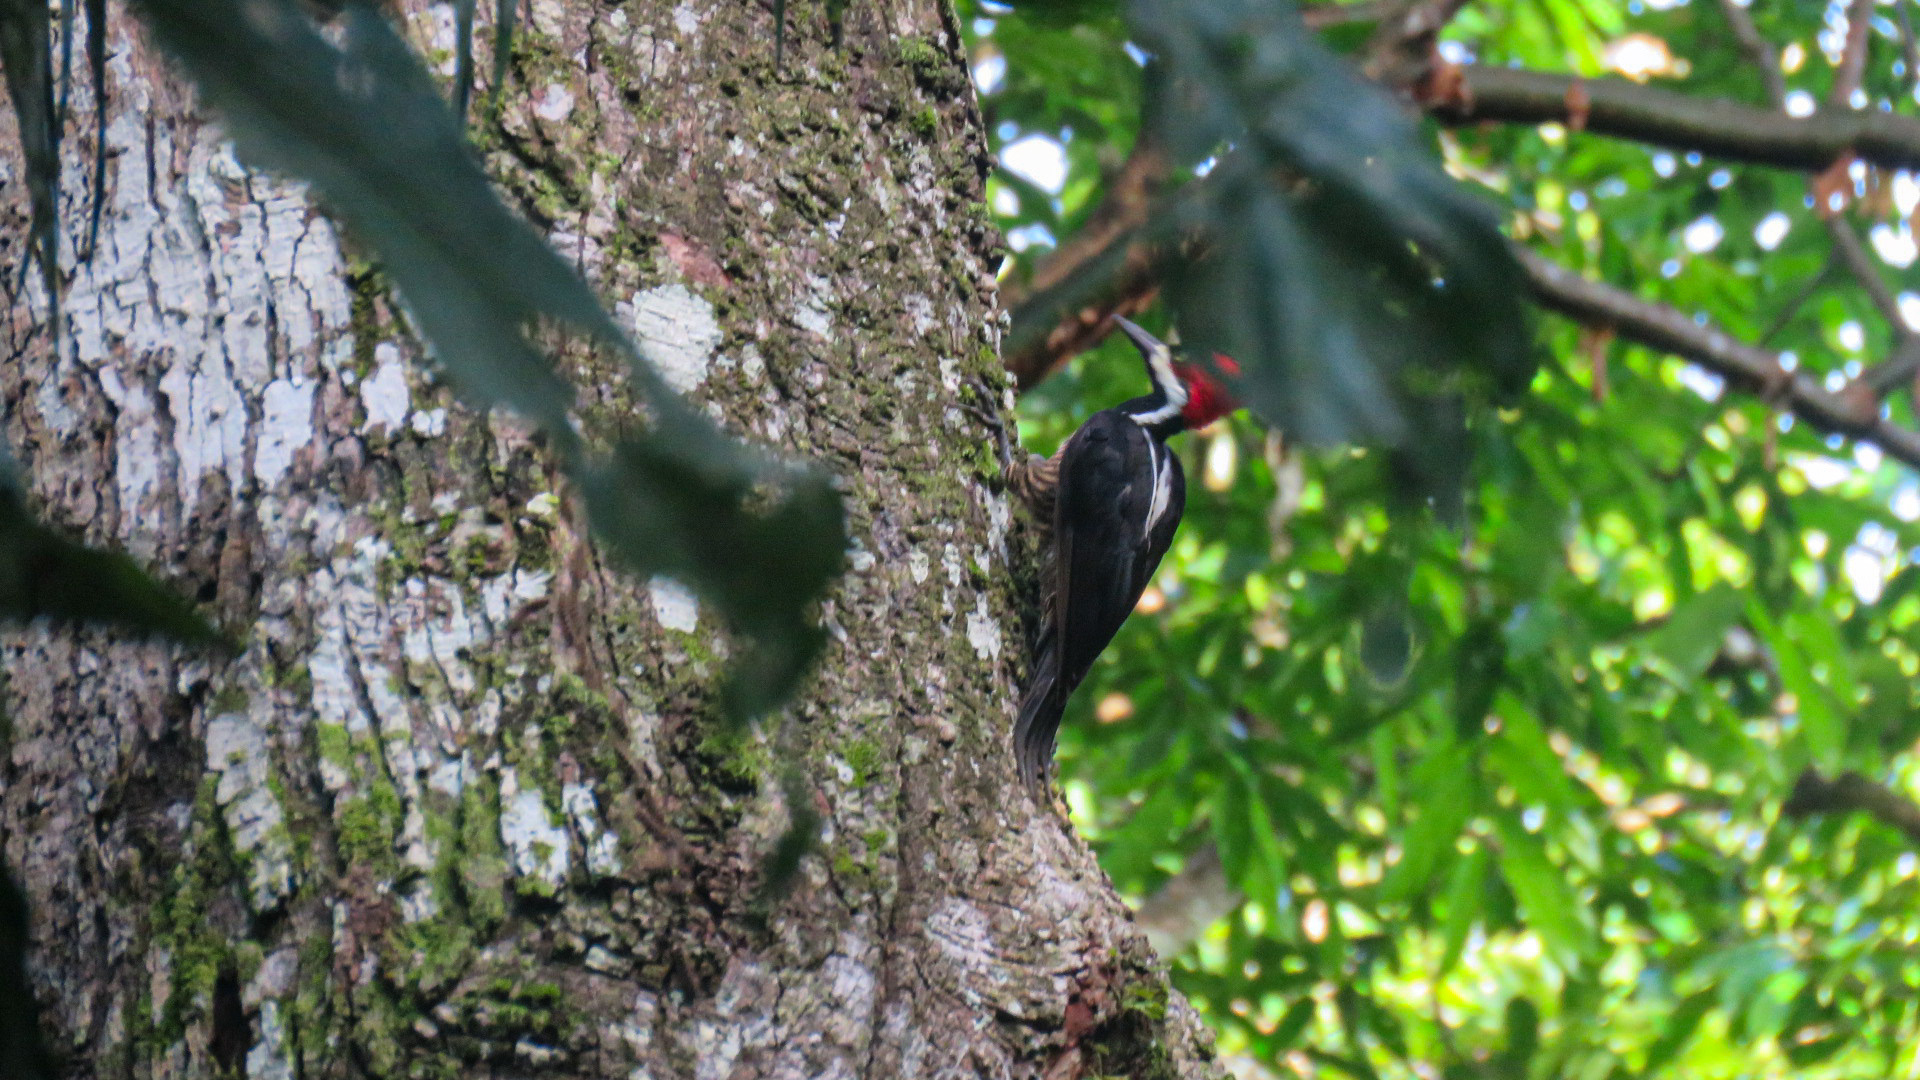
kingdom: Animalia
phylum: Chordata
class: Aves
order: Piciformes
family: Picidae
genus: Campephilus
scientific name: Campephilus melanoleucos
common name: Crimson-crested woodpecker
